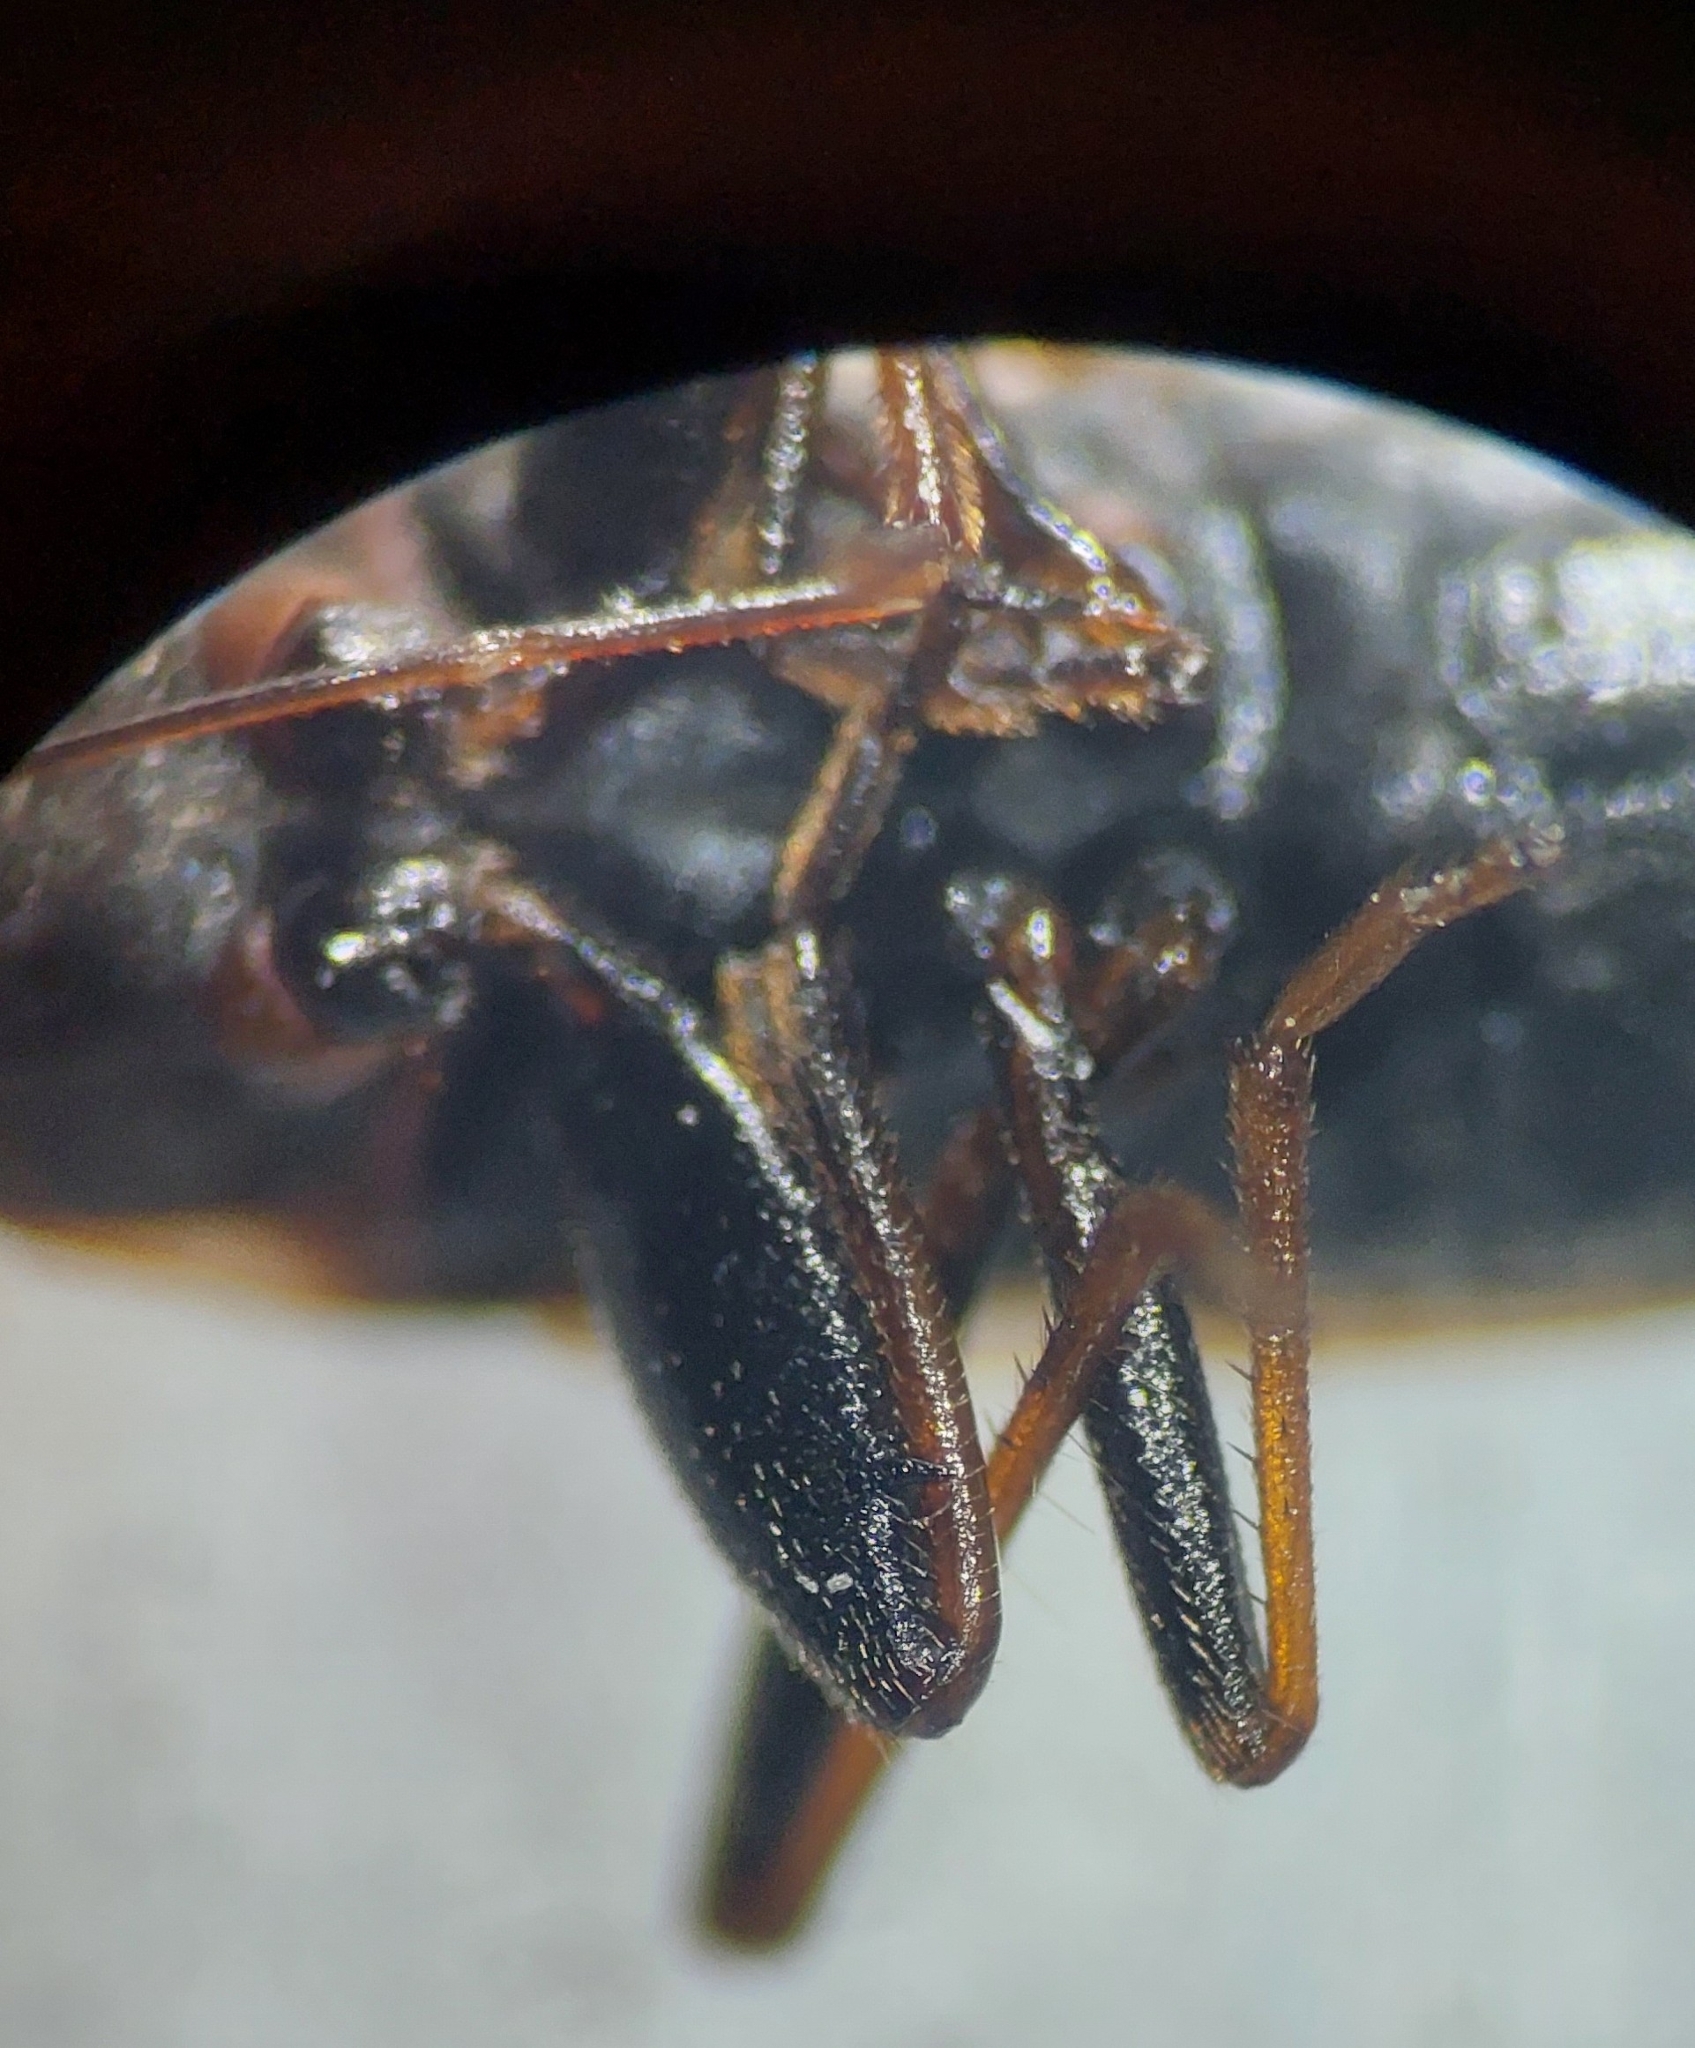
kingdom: Animalia
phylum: Arthropoda
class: Insecta
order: Hemiptera
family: Rhyparochromidae
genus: Eremocoris
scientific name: Eremocoris fenestratus
